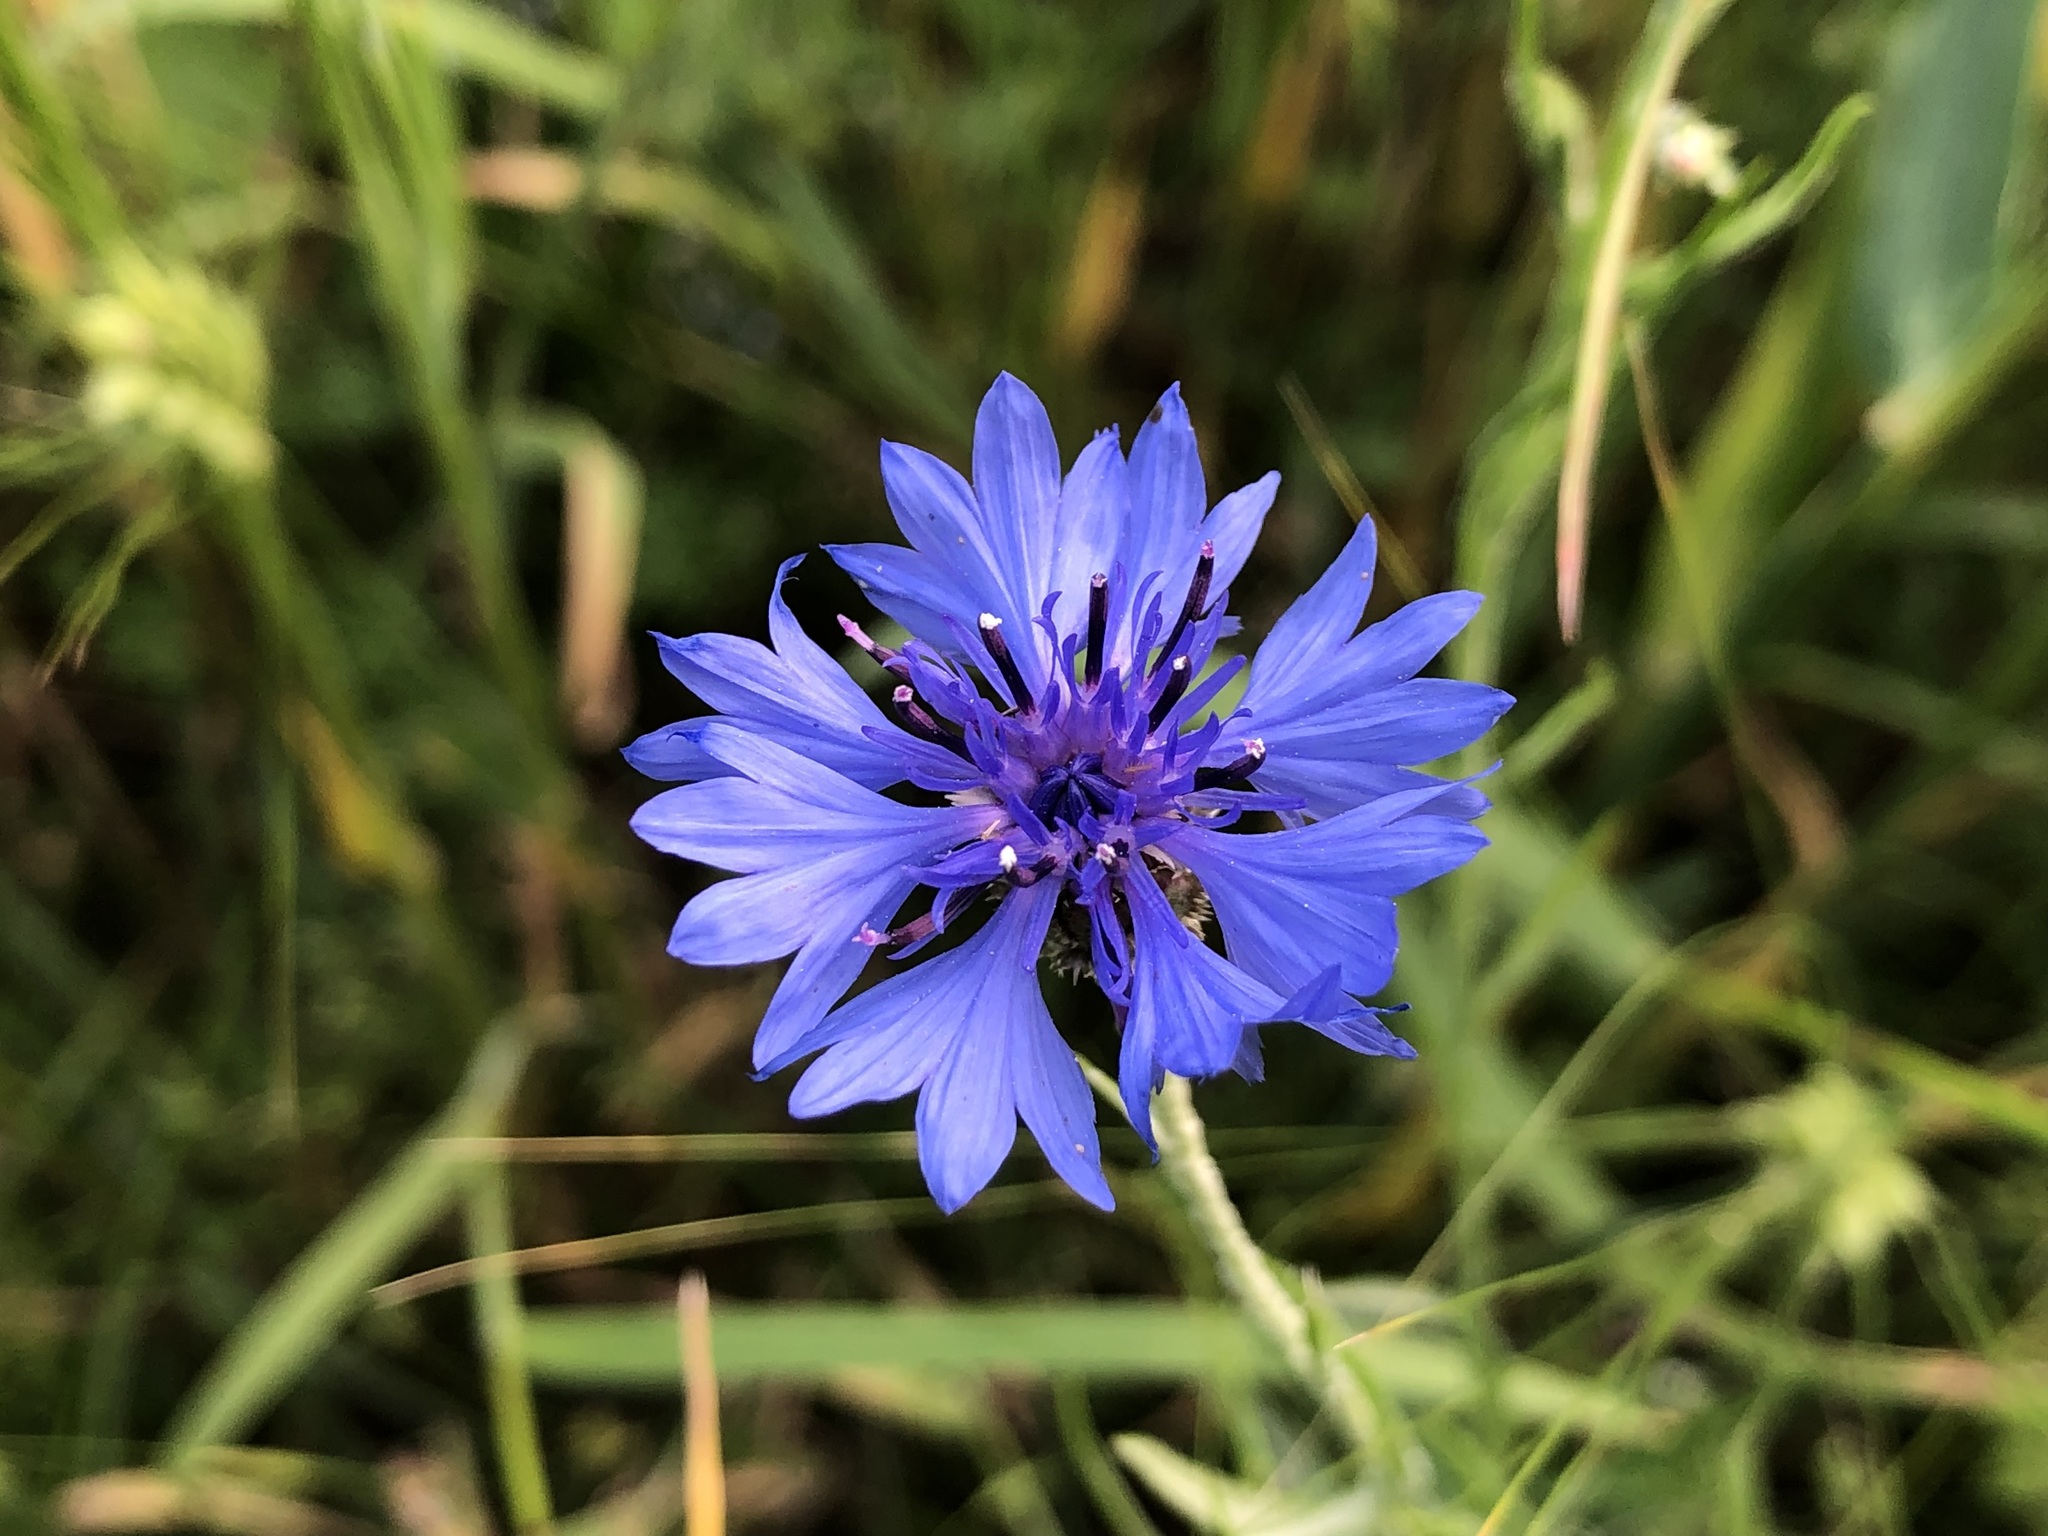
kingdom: Plantae
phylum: Tracheophyta
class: Magnoliopsida
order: Asterales
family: Asteraceae
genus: Centaurea
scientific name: Centaurea cyanus
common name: Cornflower
